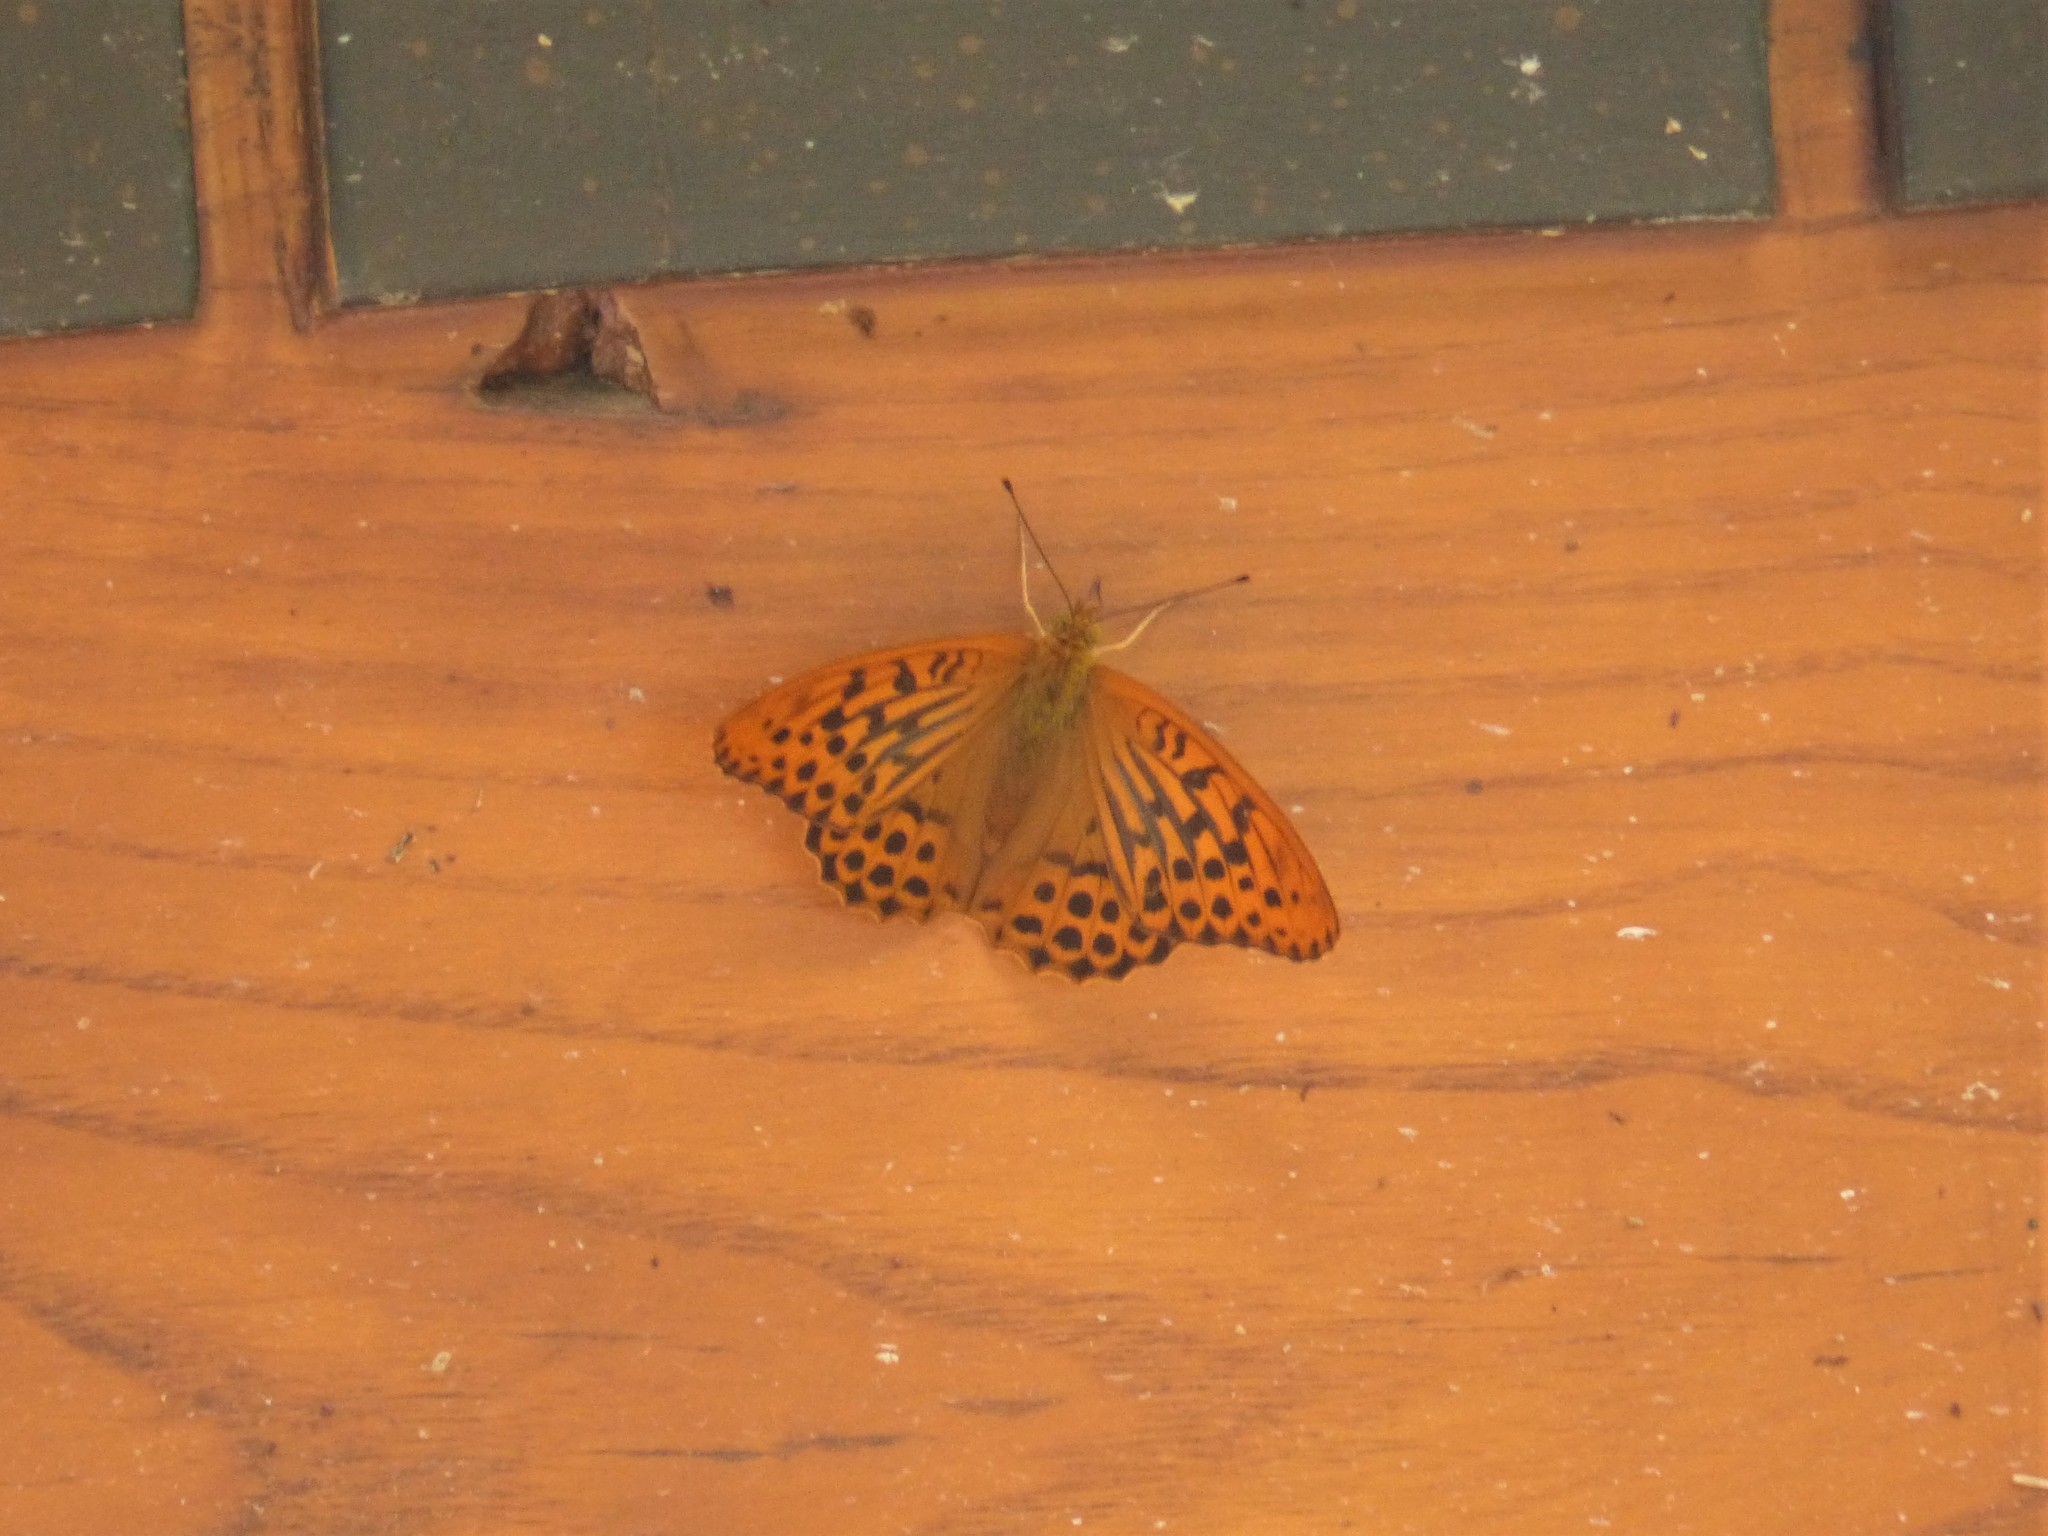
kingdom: Animalia
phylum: Arthropoda
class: Insecta
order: Lepidoptera
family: Nymphalidae
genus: Argynnis
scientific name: Argynnis paphia
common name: Silver-washed fritillary
